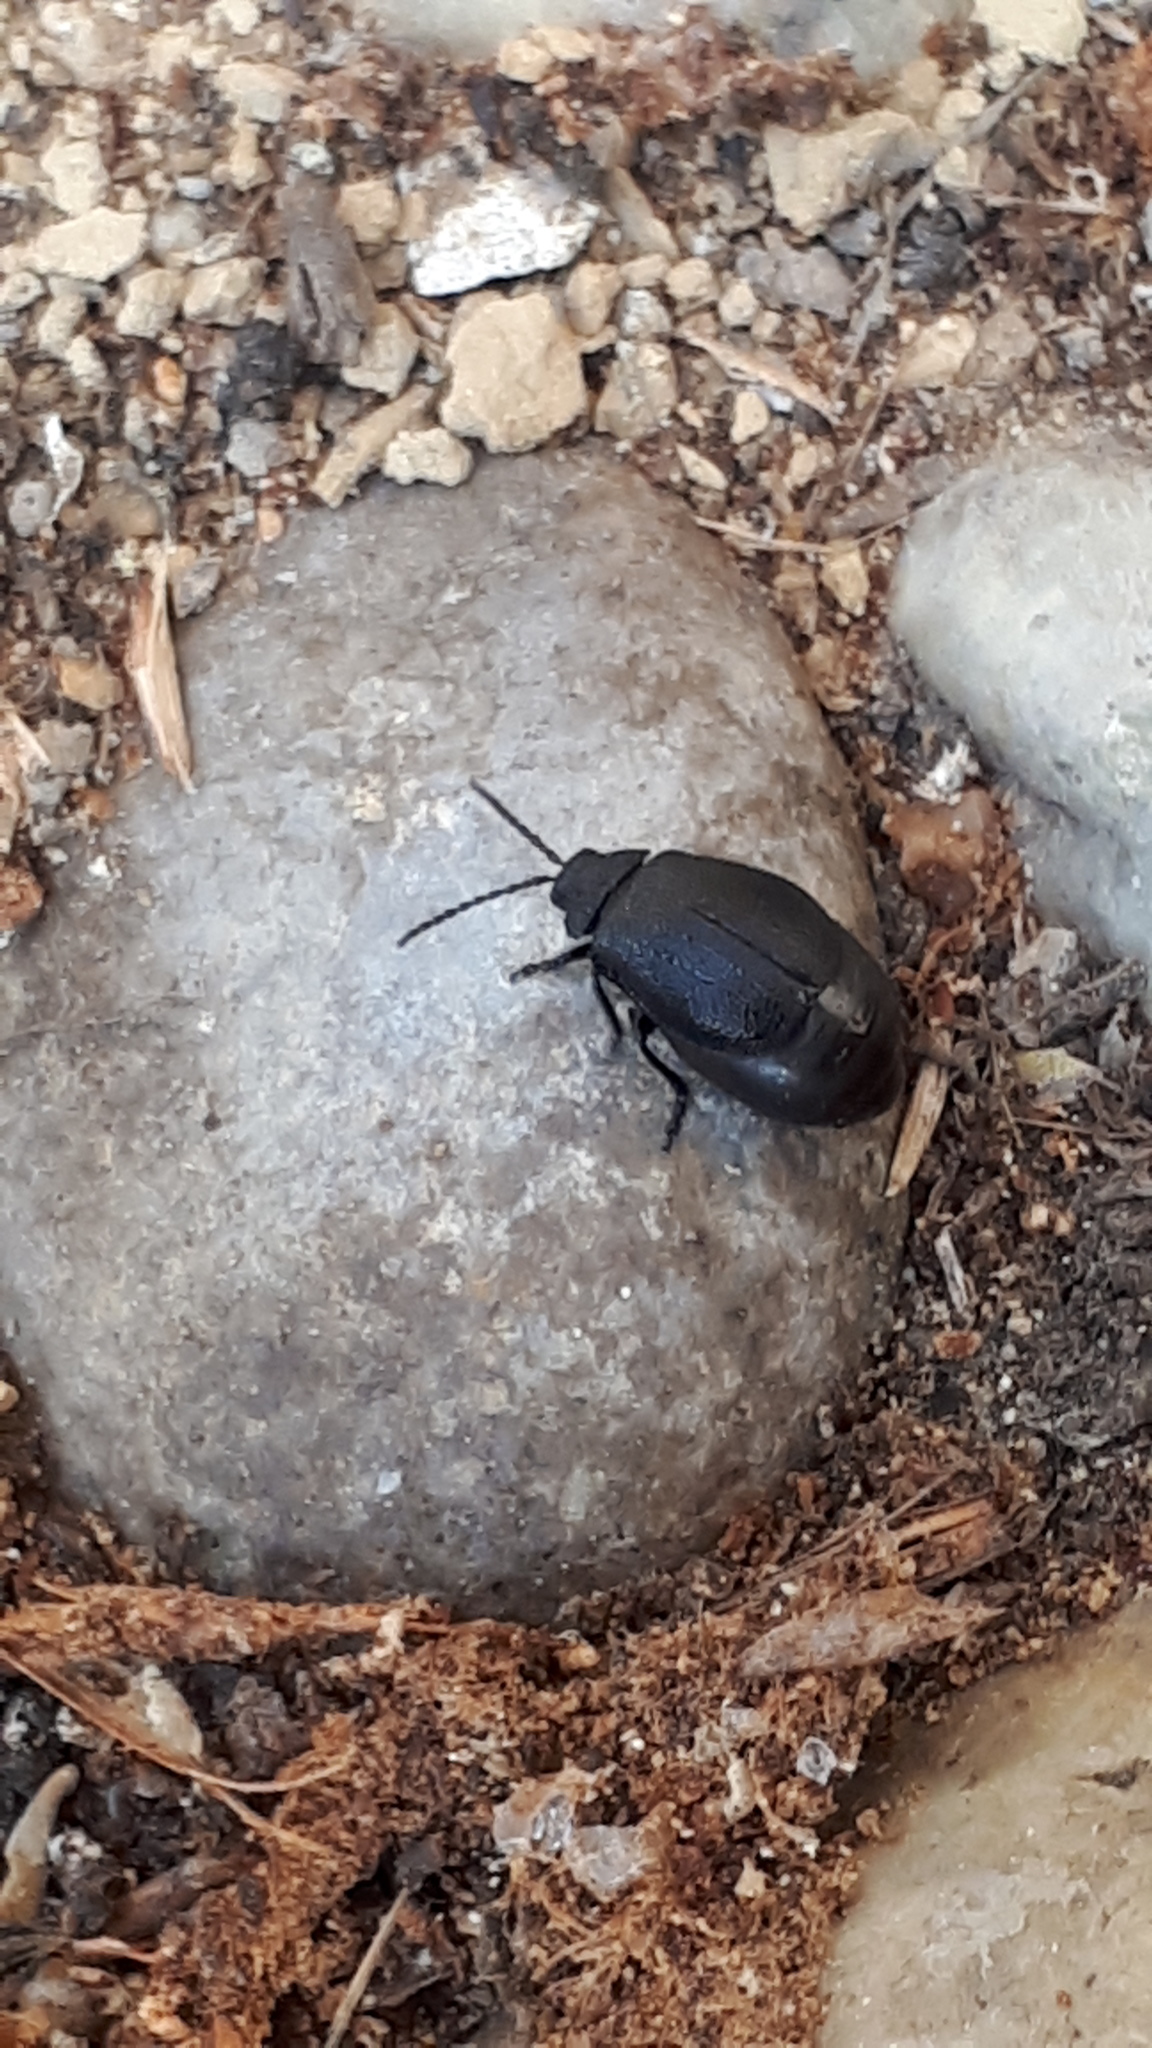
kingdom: Animalia
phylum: Arthropoda
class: Insecta
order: Coleoptera
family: Chrysomelidae
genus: Galeruca
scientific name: Galeruca tanaceti
